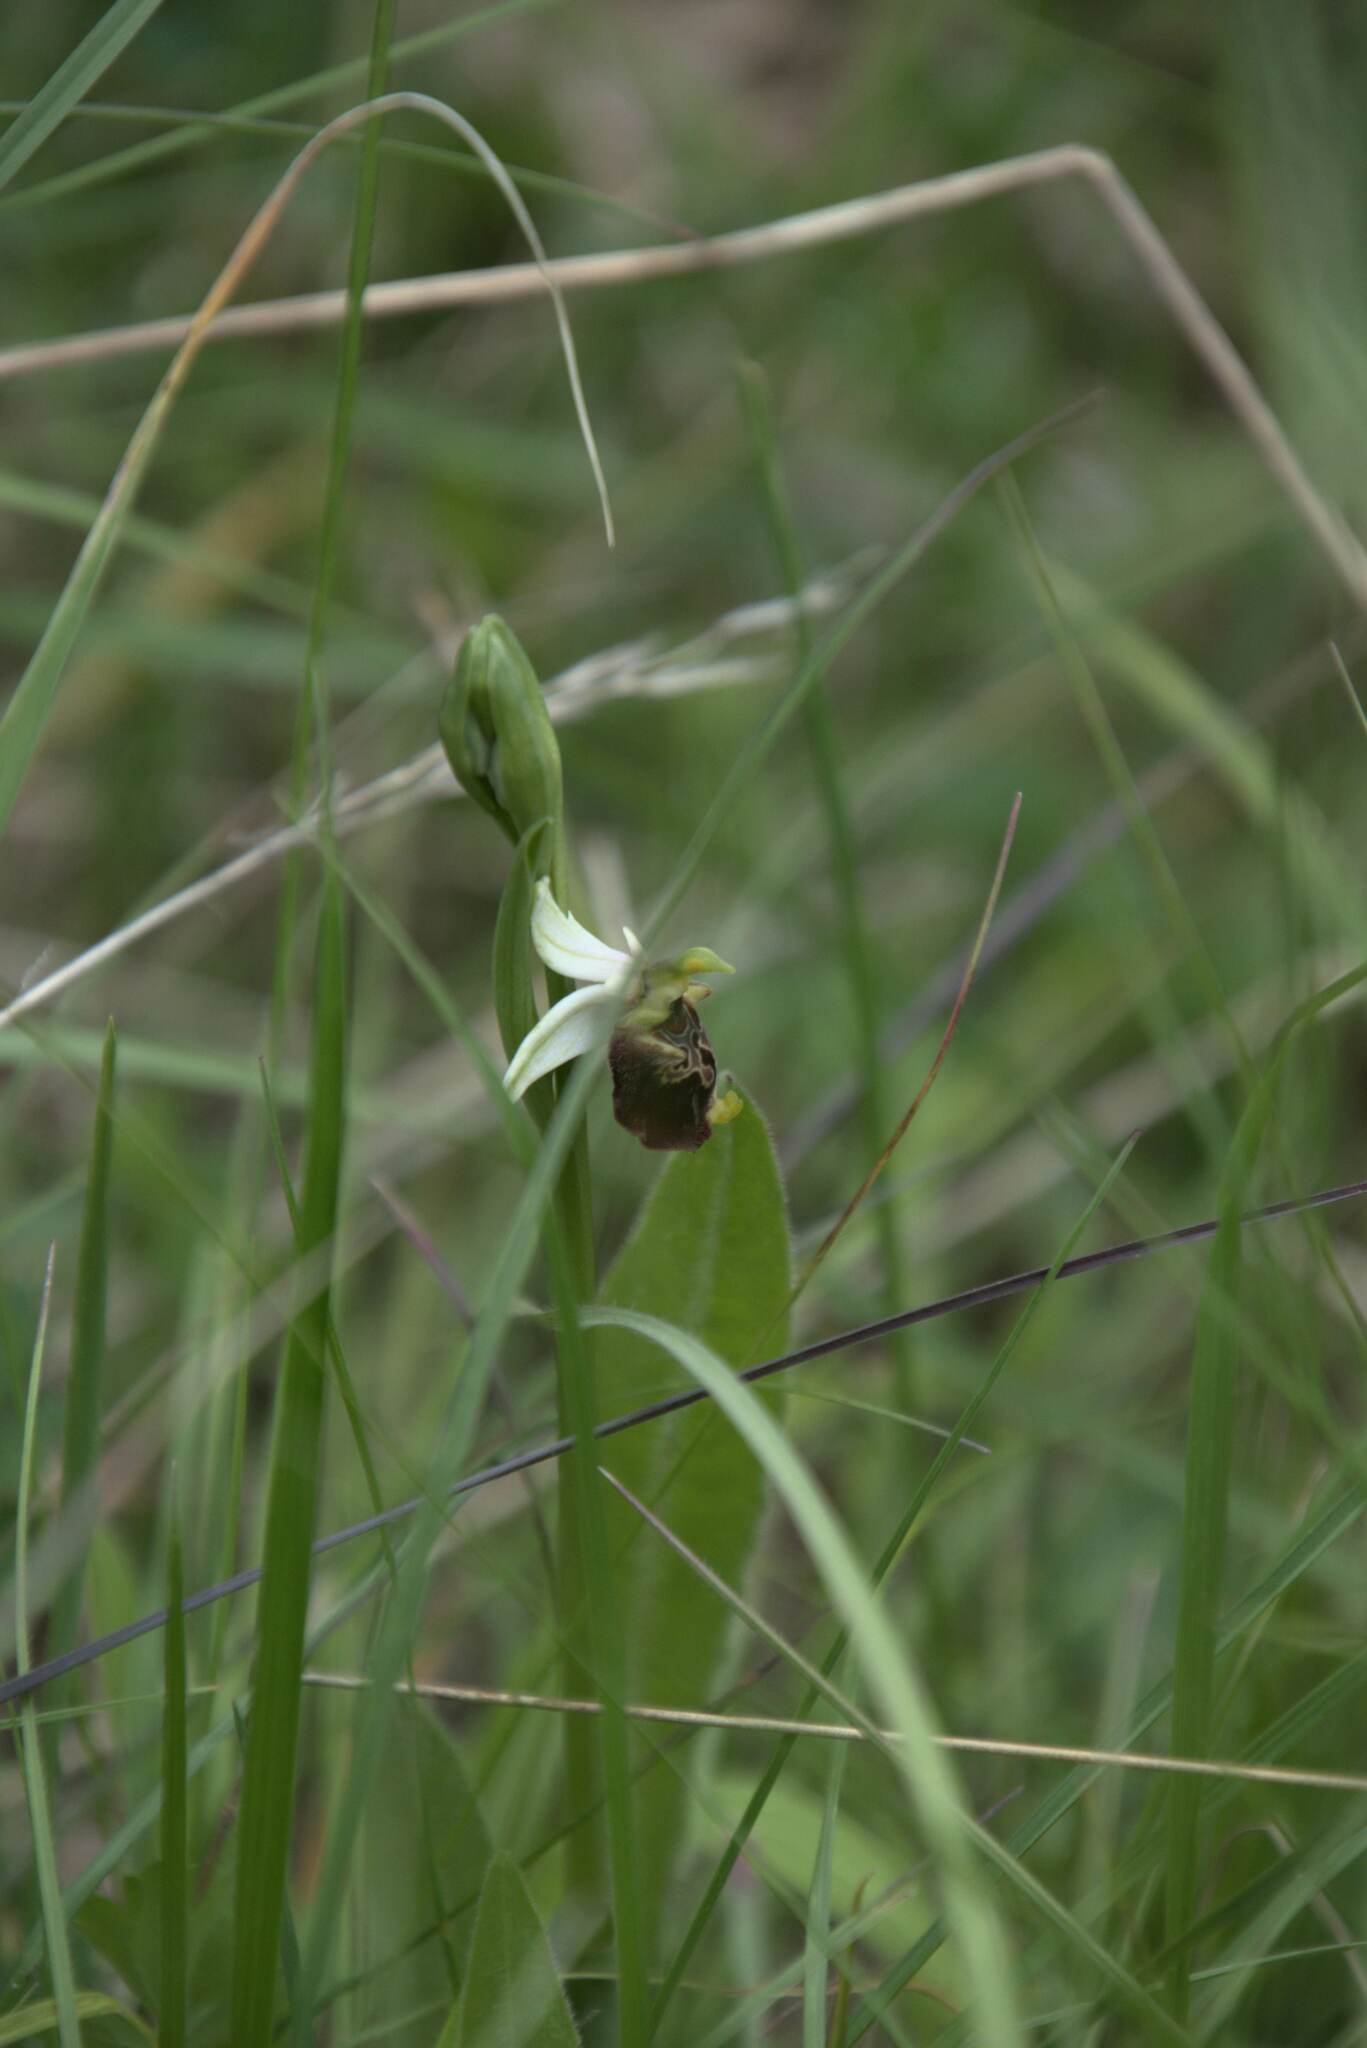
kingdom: Plantae
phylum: Tracheophyta
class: Liliopsida
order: Asparagales
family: Orchidaceae
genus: Ophrys
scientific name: Ophrys holosericea
